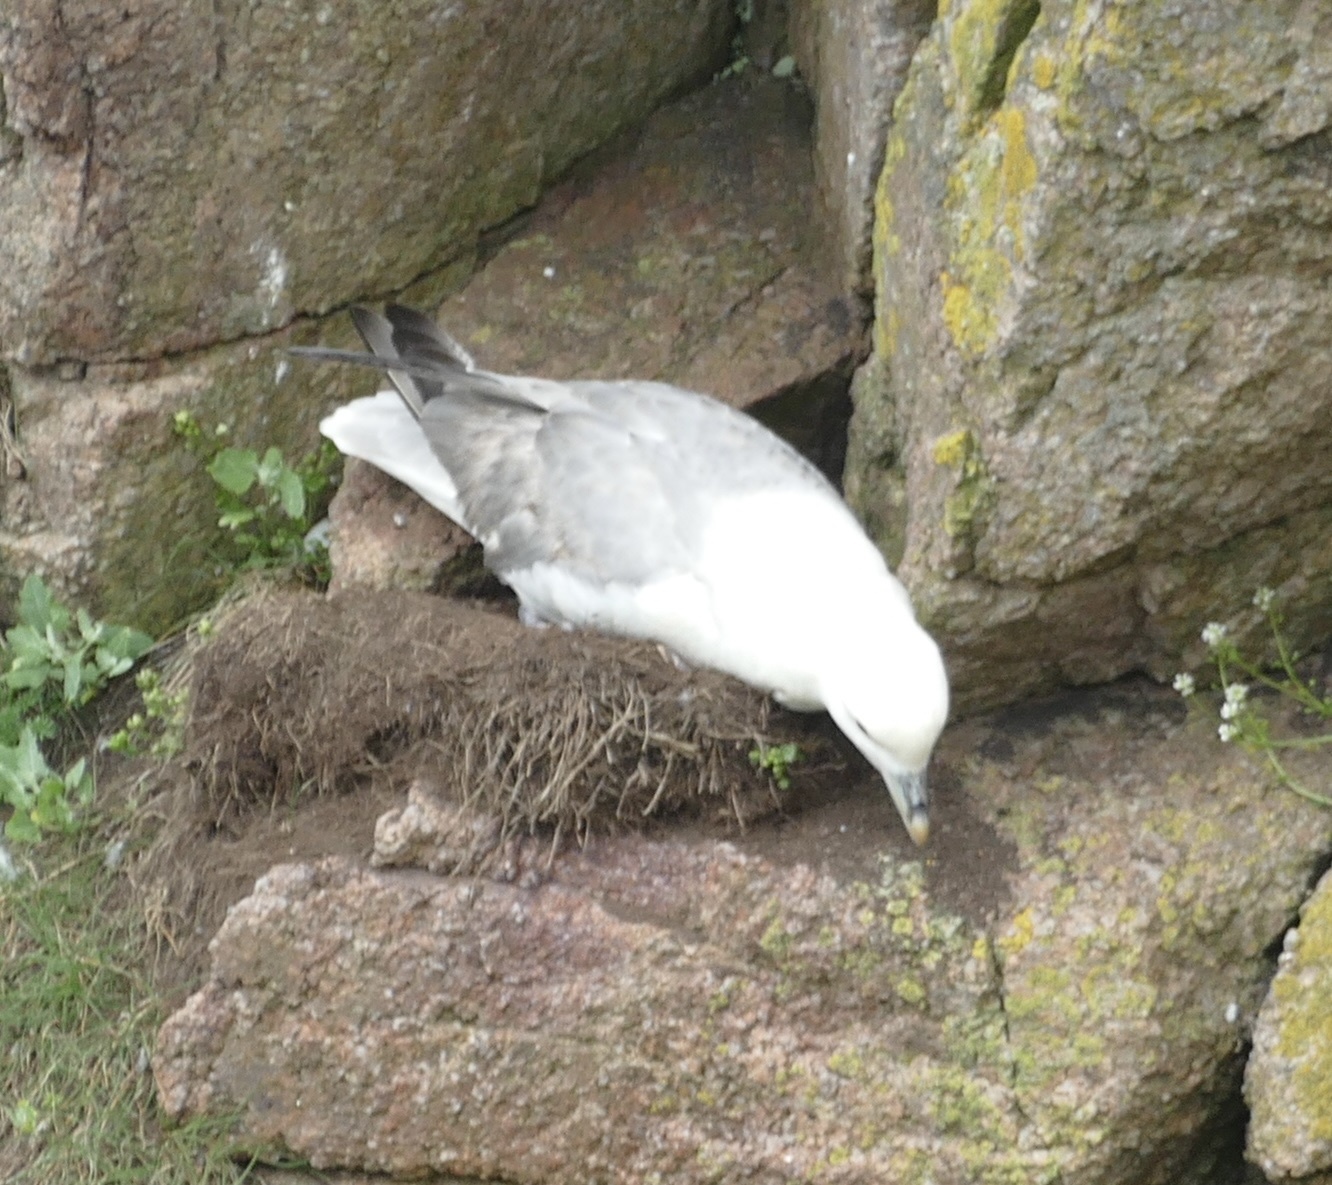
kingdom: Animalia
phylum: Chordata
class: Aves
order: Procellariiformes
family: Procellariidae
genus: Fulmarus
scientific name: Fulmarus glacialis
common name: Northern fulmar
